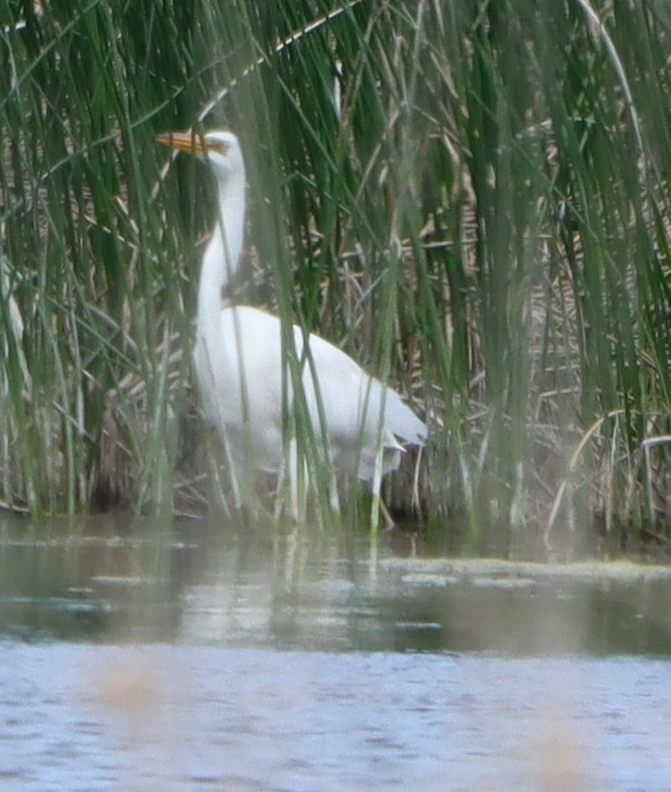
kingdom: Animalia
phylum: Chordata
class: Aves
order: Pelecaniformes
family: Ardeidae
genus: Ardea
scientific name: Ardea alba
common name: Great egret
